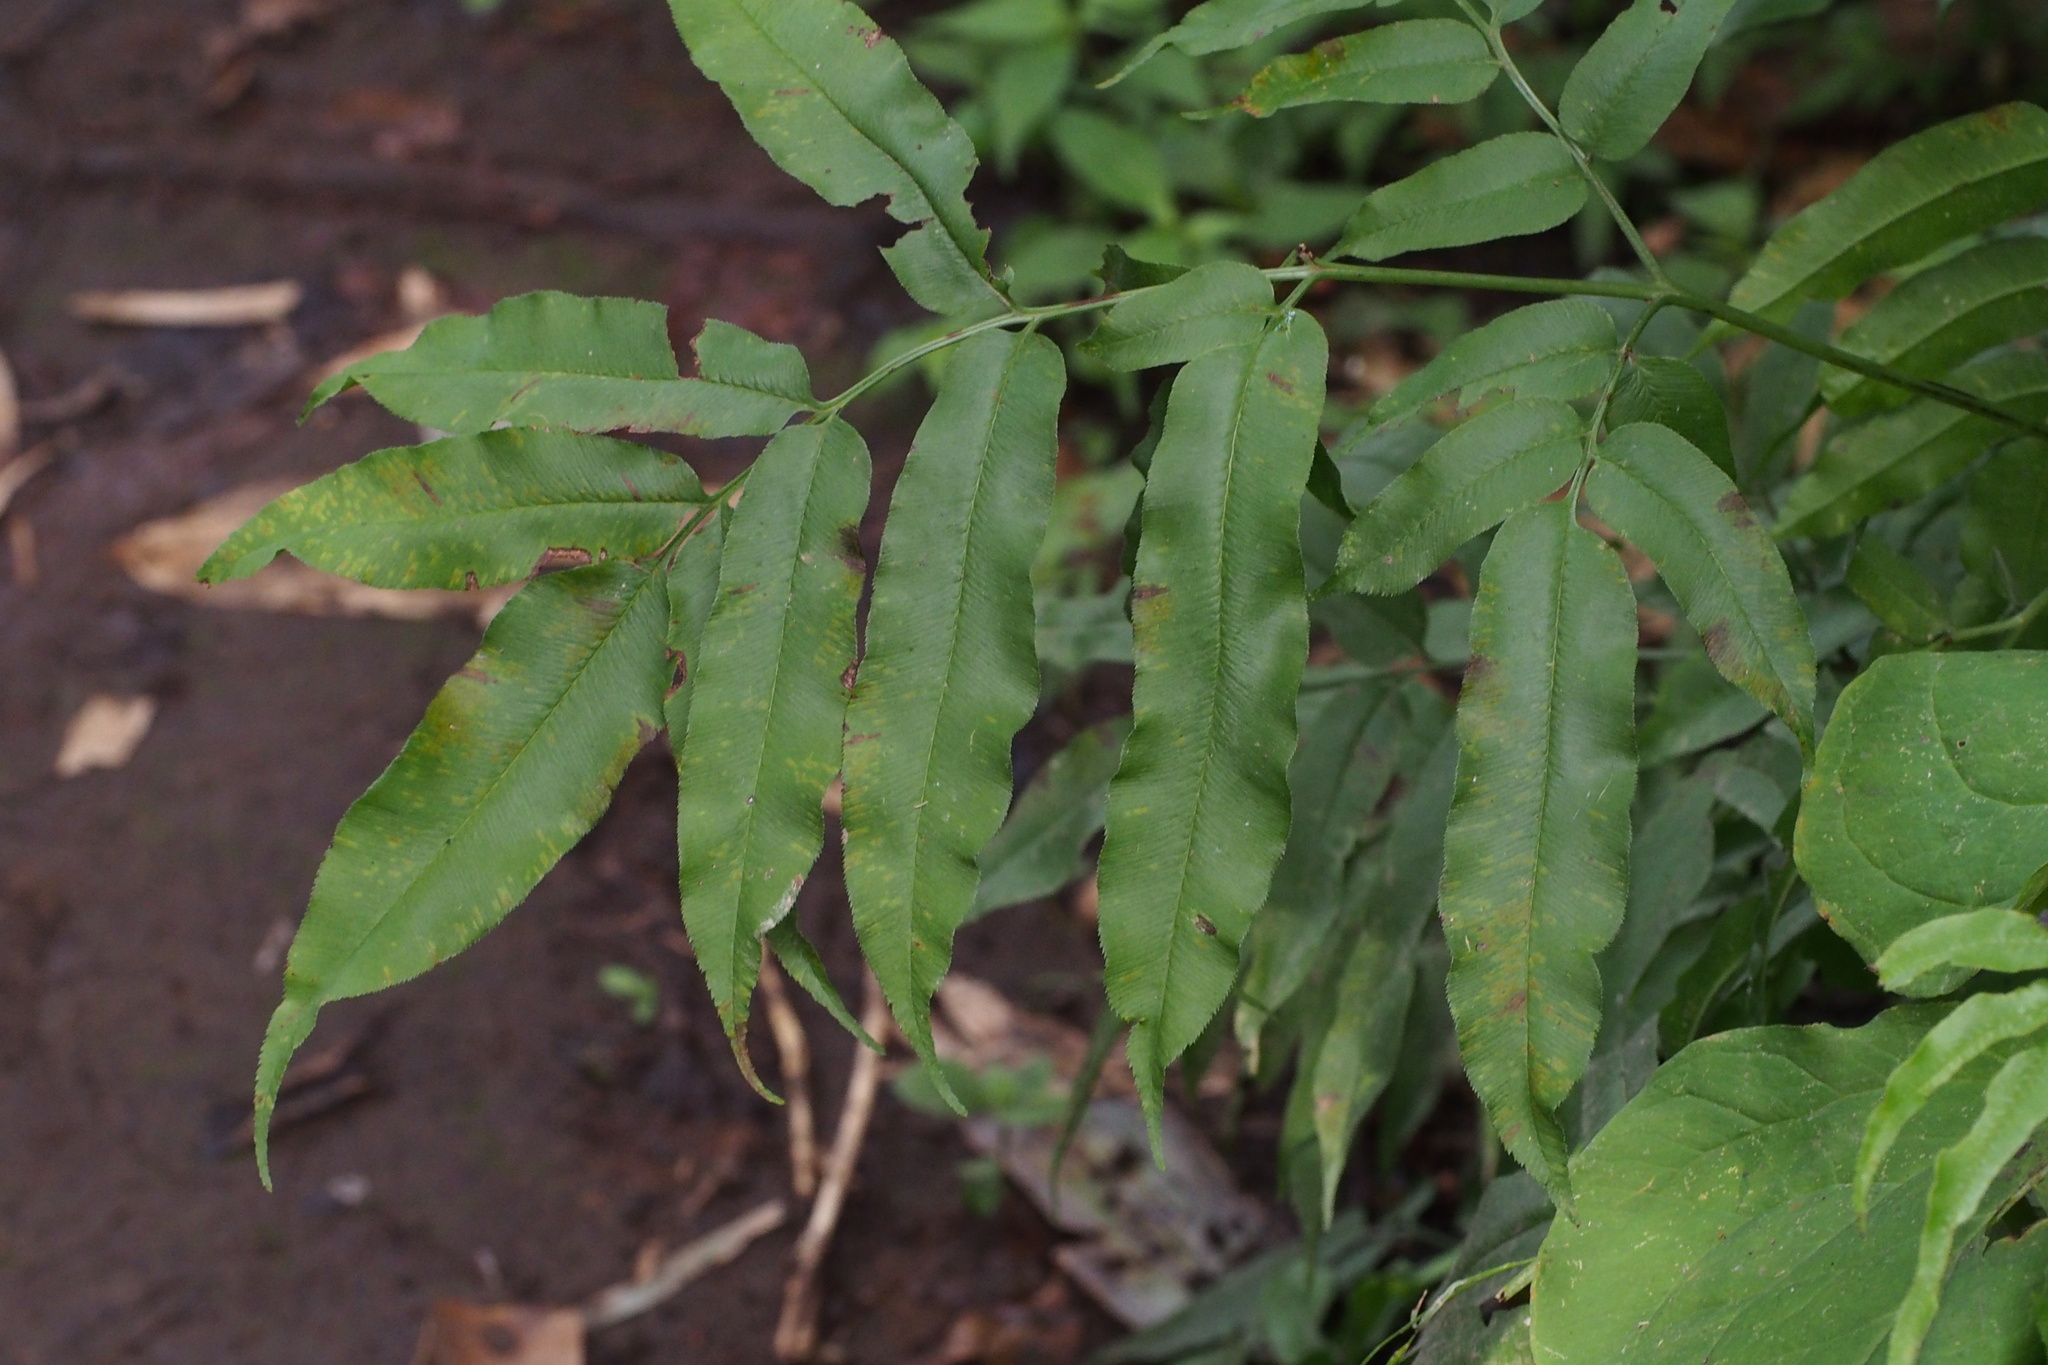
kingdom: Plantae
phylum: Tracheophyta
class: Polypodiopsida
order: Polypodiales
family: Pteridaceae
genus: Coniogramme
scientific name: Coniogramme intermedia
